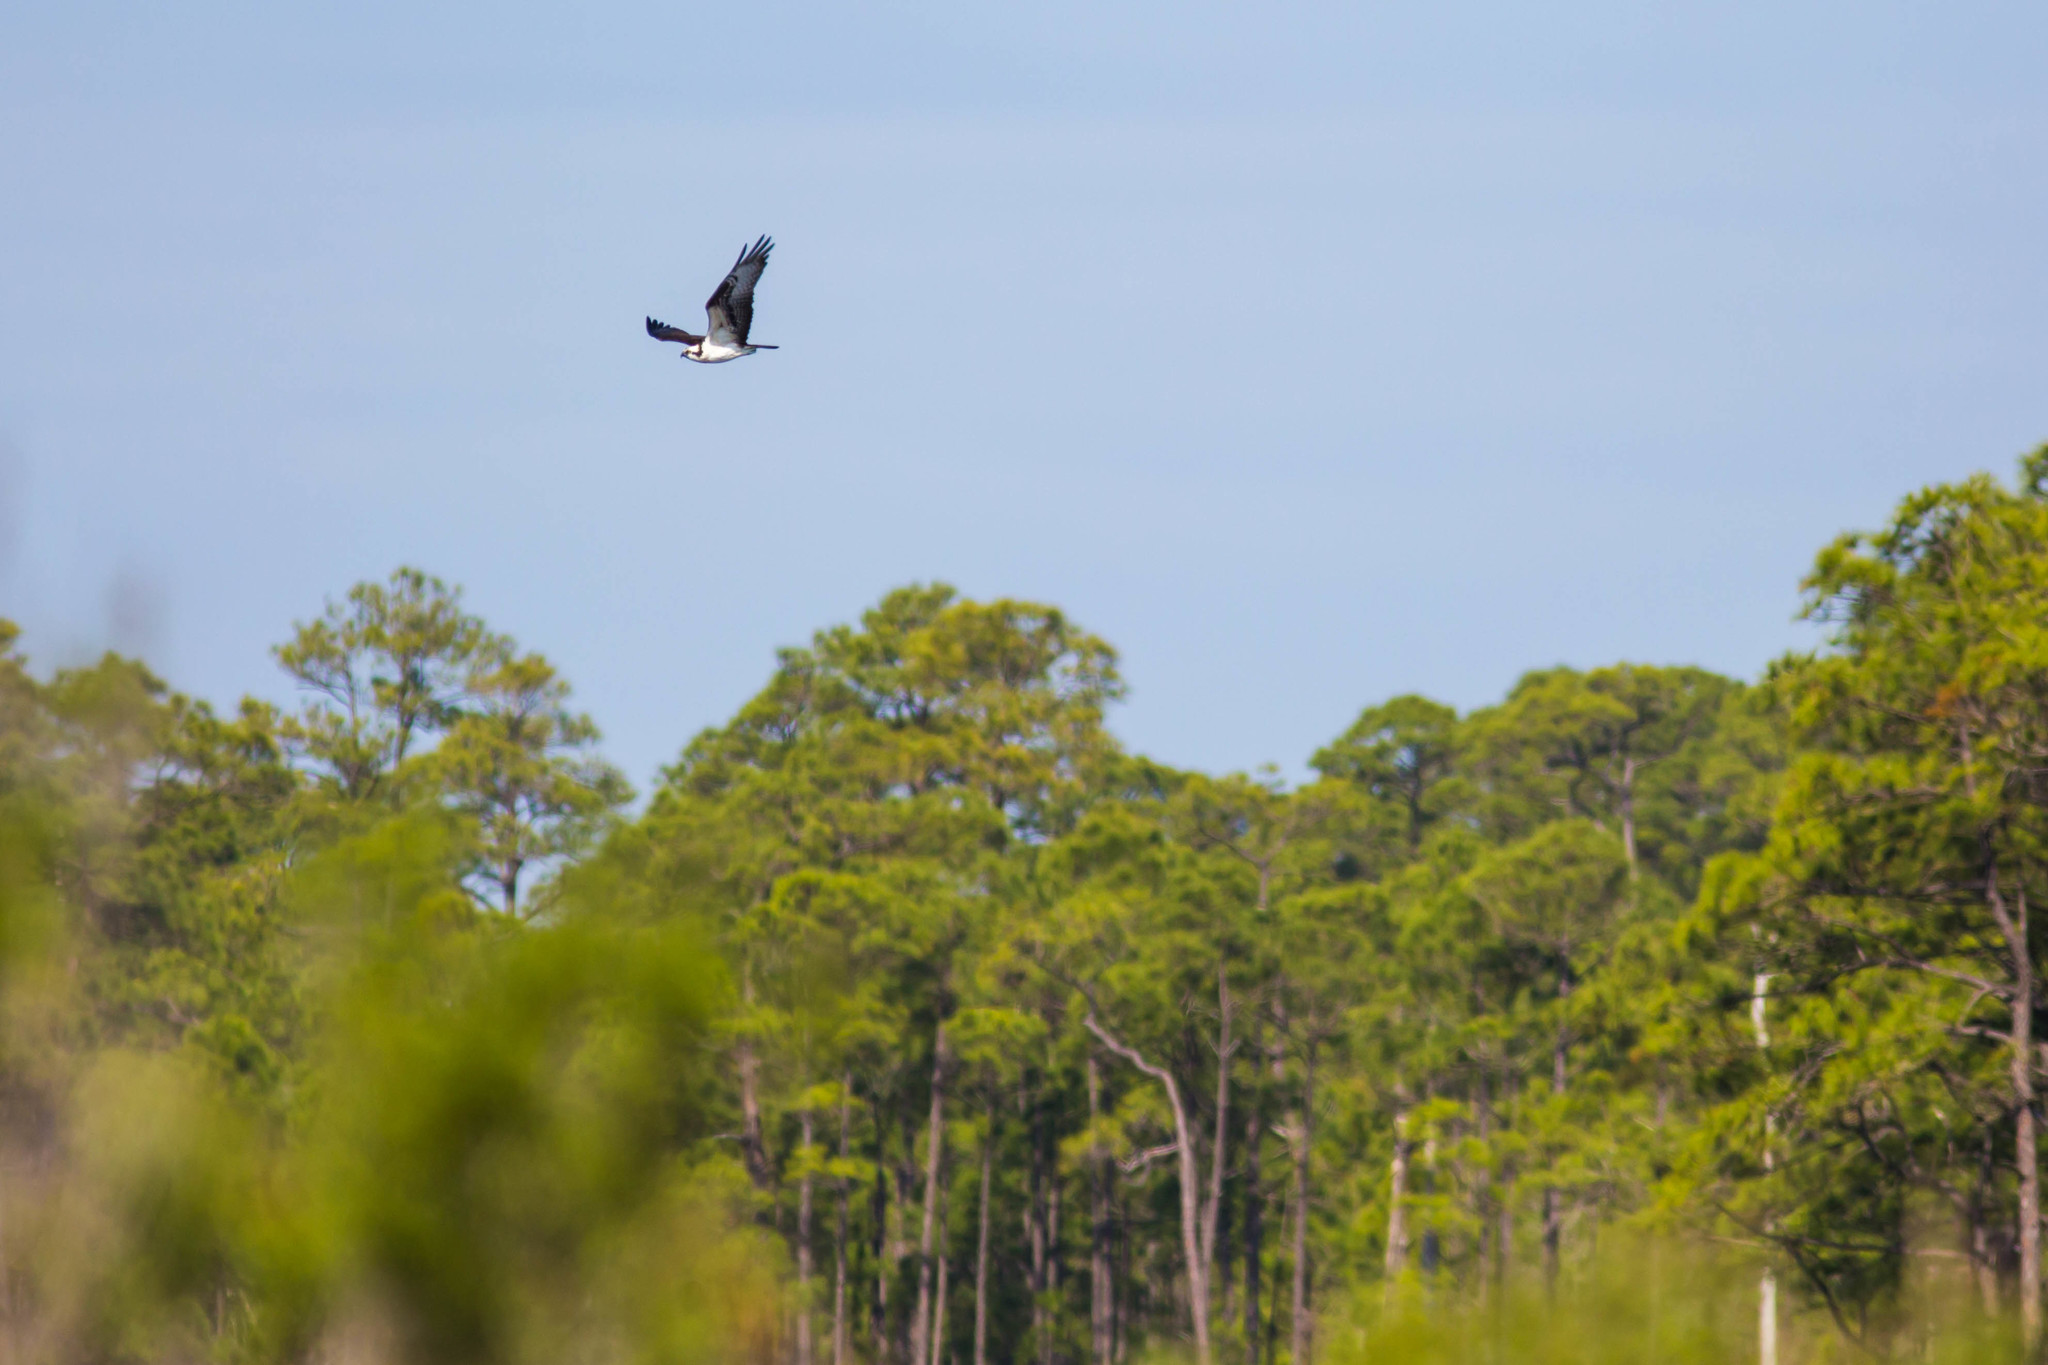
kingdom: Animalia
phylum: Chordata
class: Aves
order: Accipitriformes
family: Pandionidae
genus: Pandion
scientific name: Pandion haliaetus
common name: Osprey
